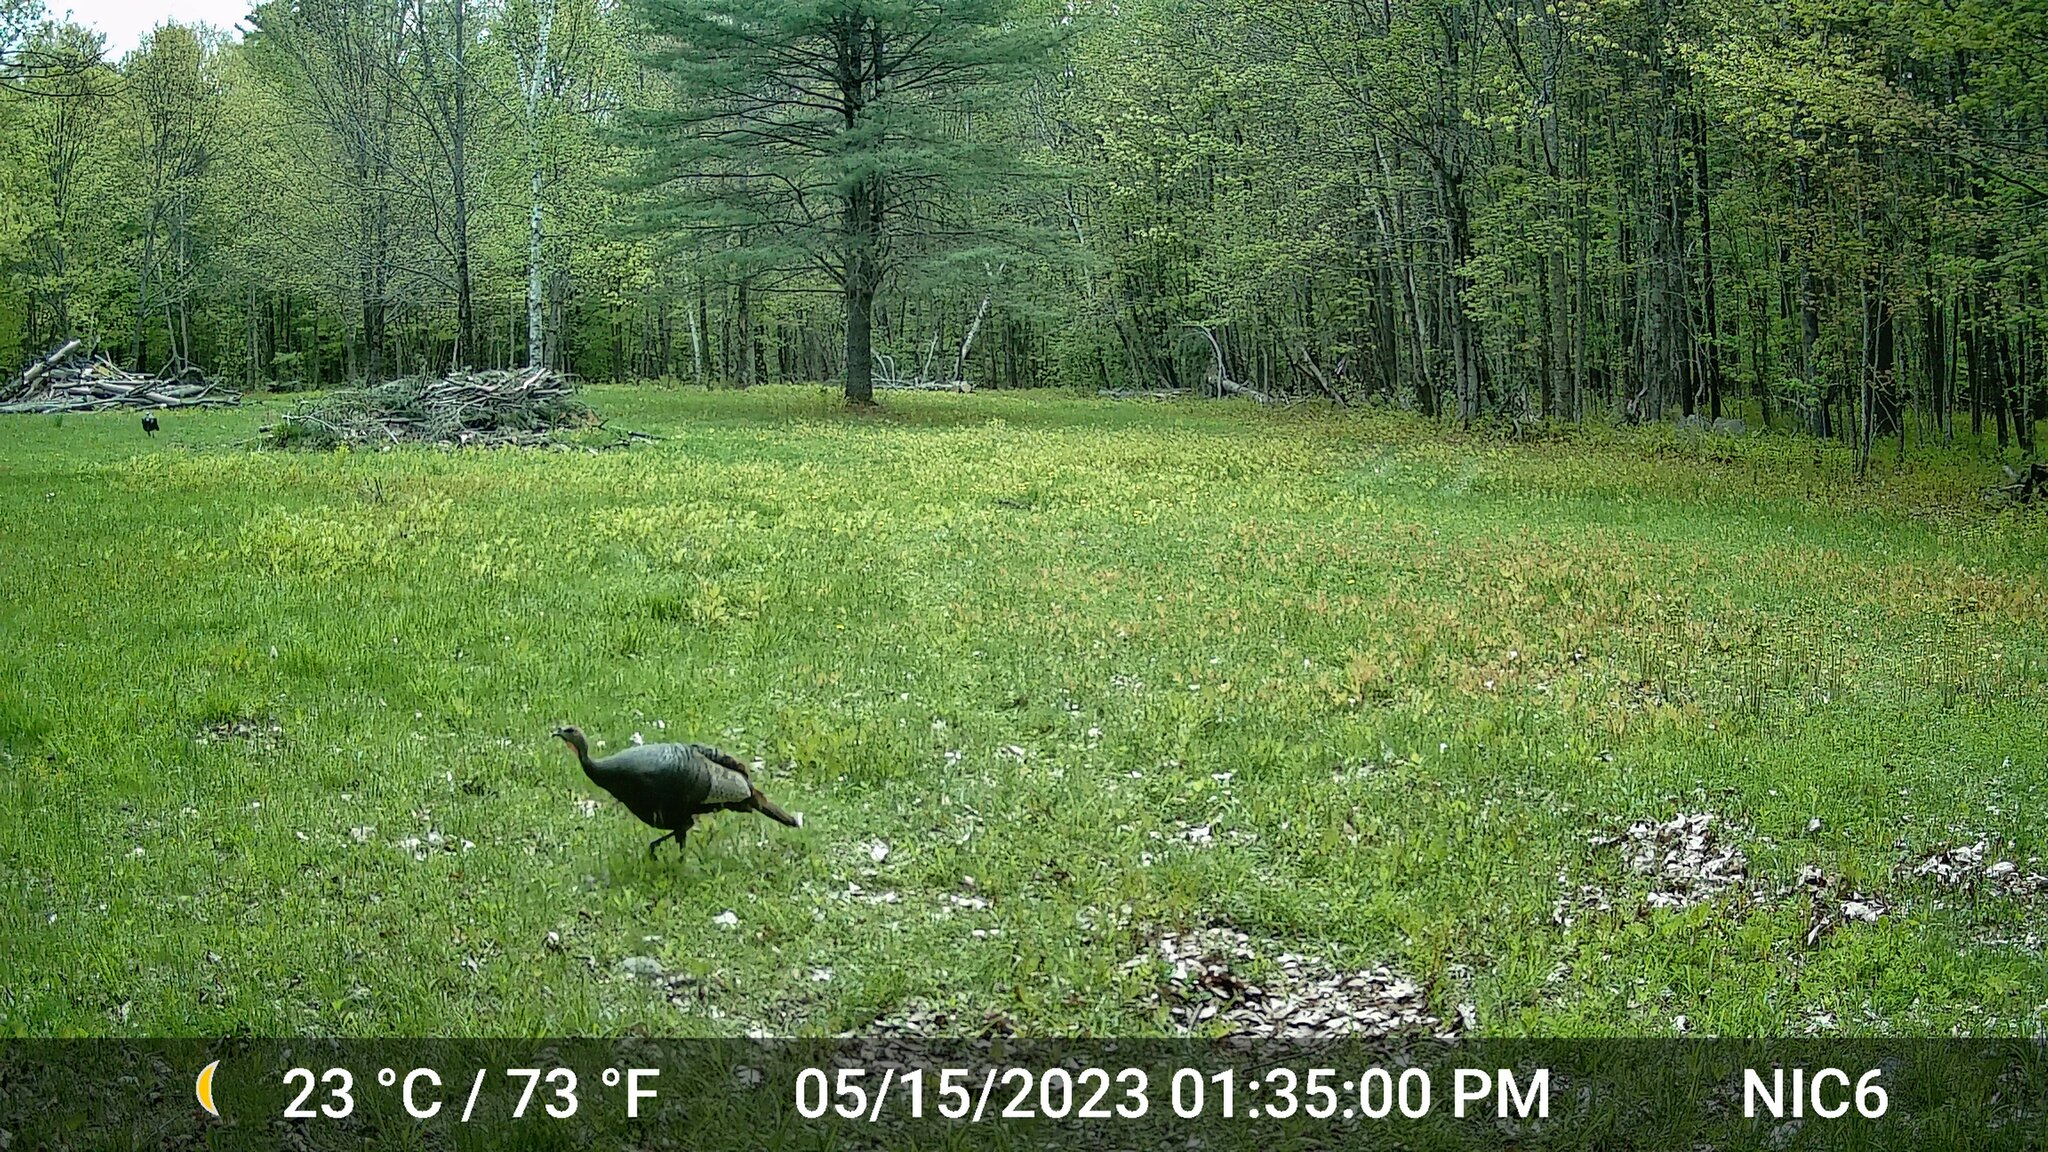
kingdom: Animalia
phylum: Chordata
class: Aves
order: Galliformes
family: Phasianidae
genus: Meleagris
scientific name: Meleagris gallopavo
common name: Wild turkey
